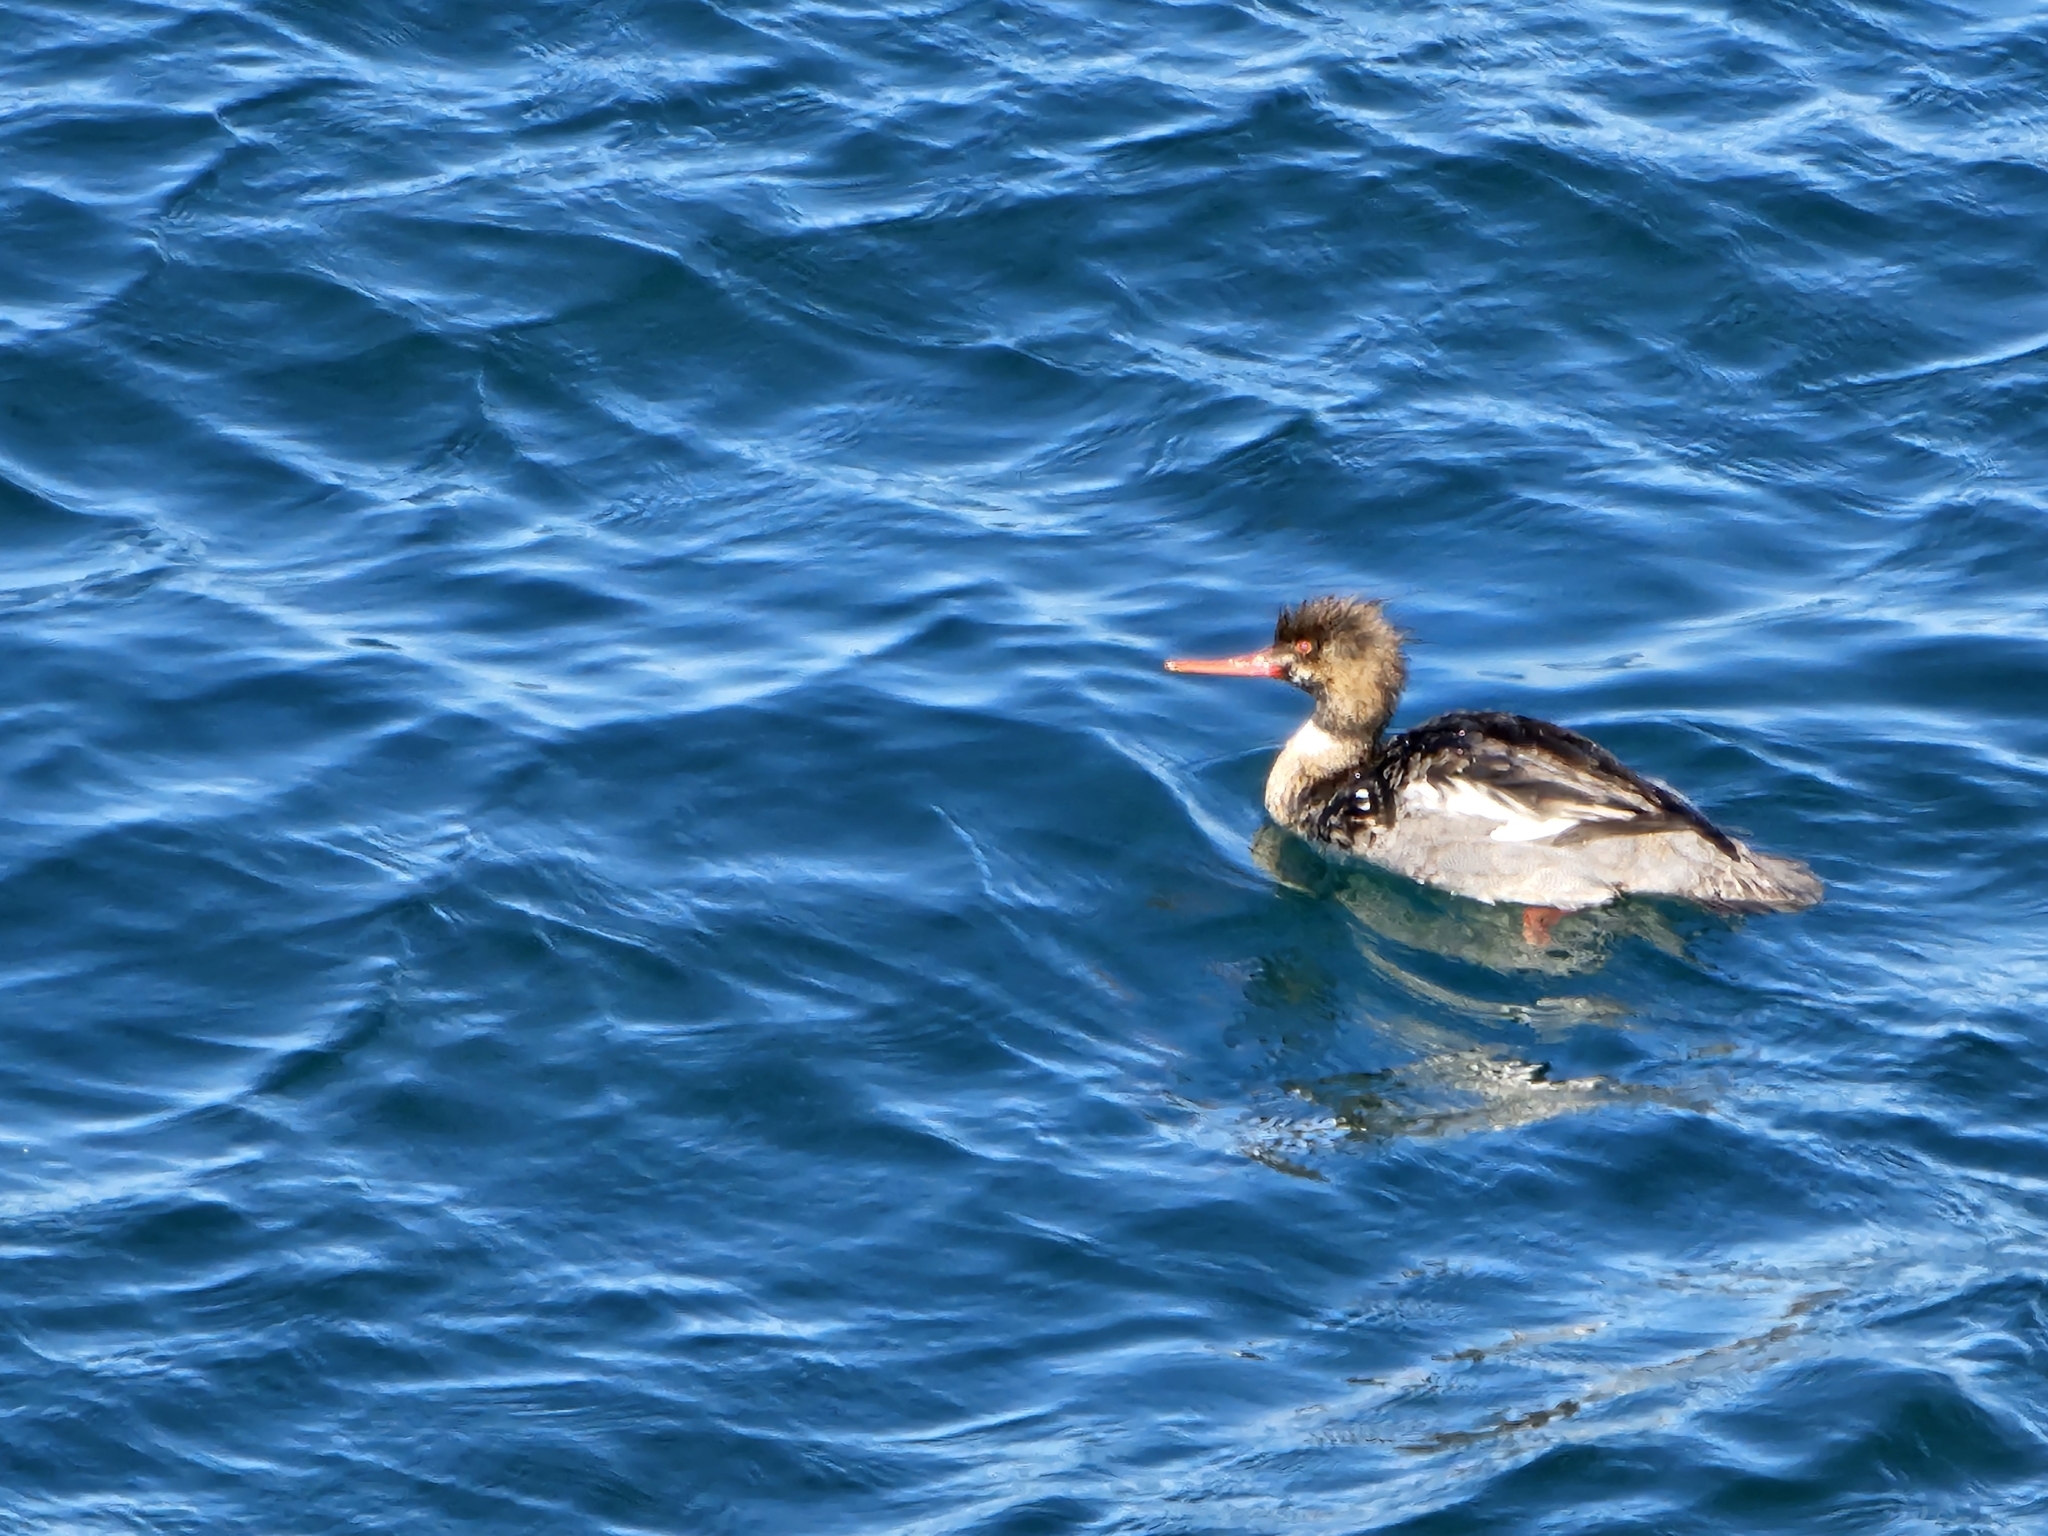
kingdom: Animalia
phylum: Chordata
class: Aves
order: Anseriformes
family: Anatidae
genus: Mergus
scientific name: Mergus serrator
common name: Red-breasted merganser
